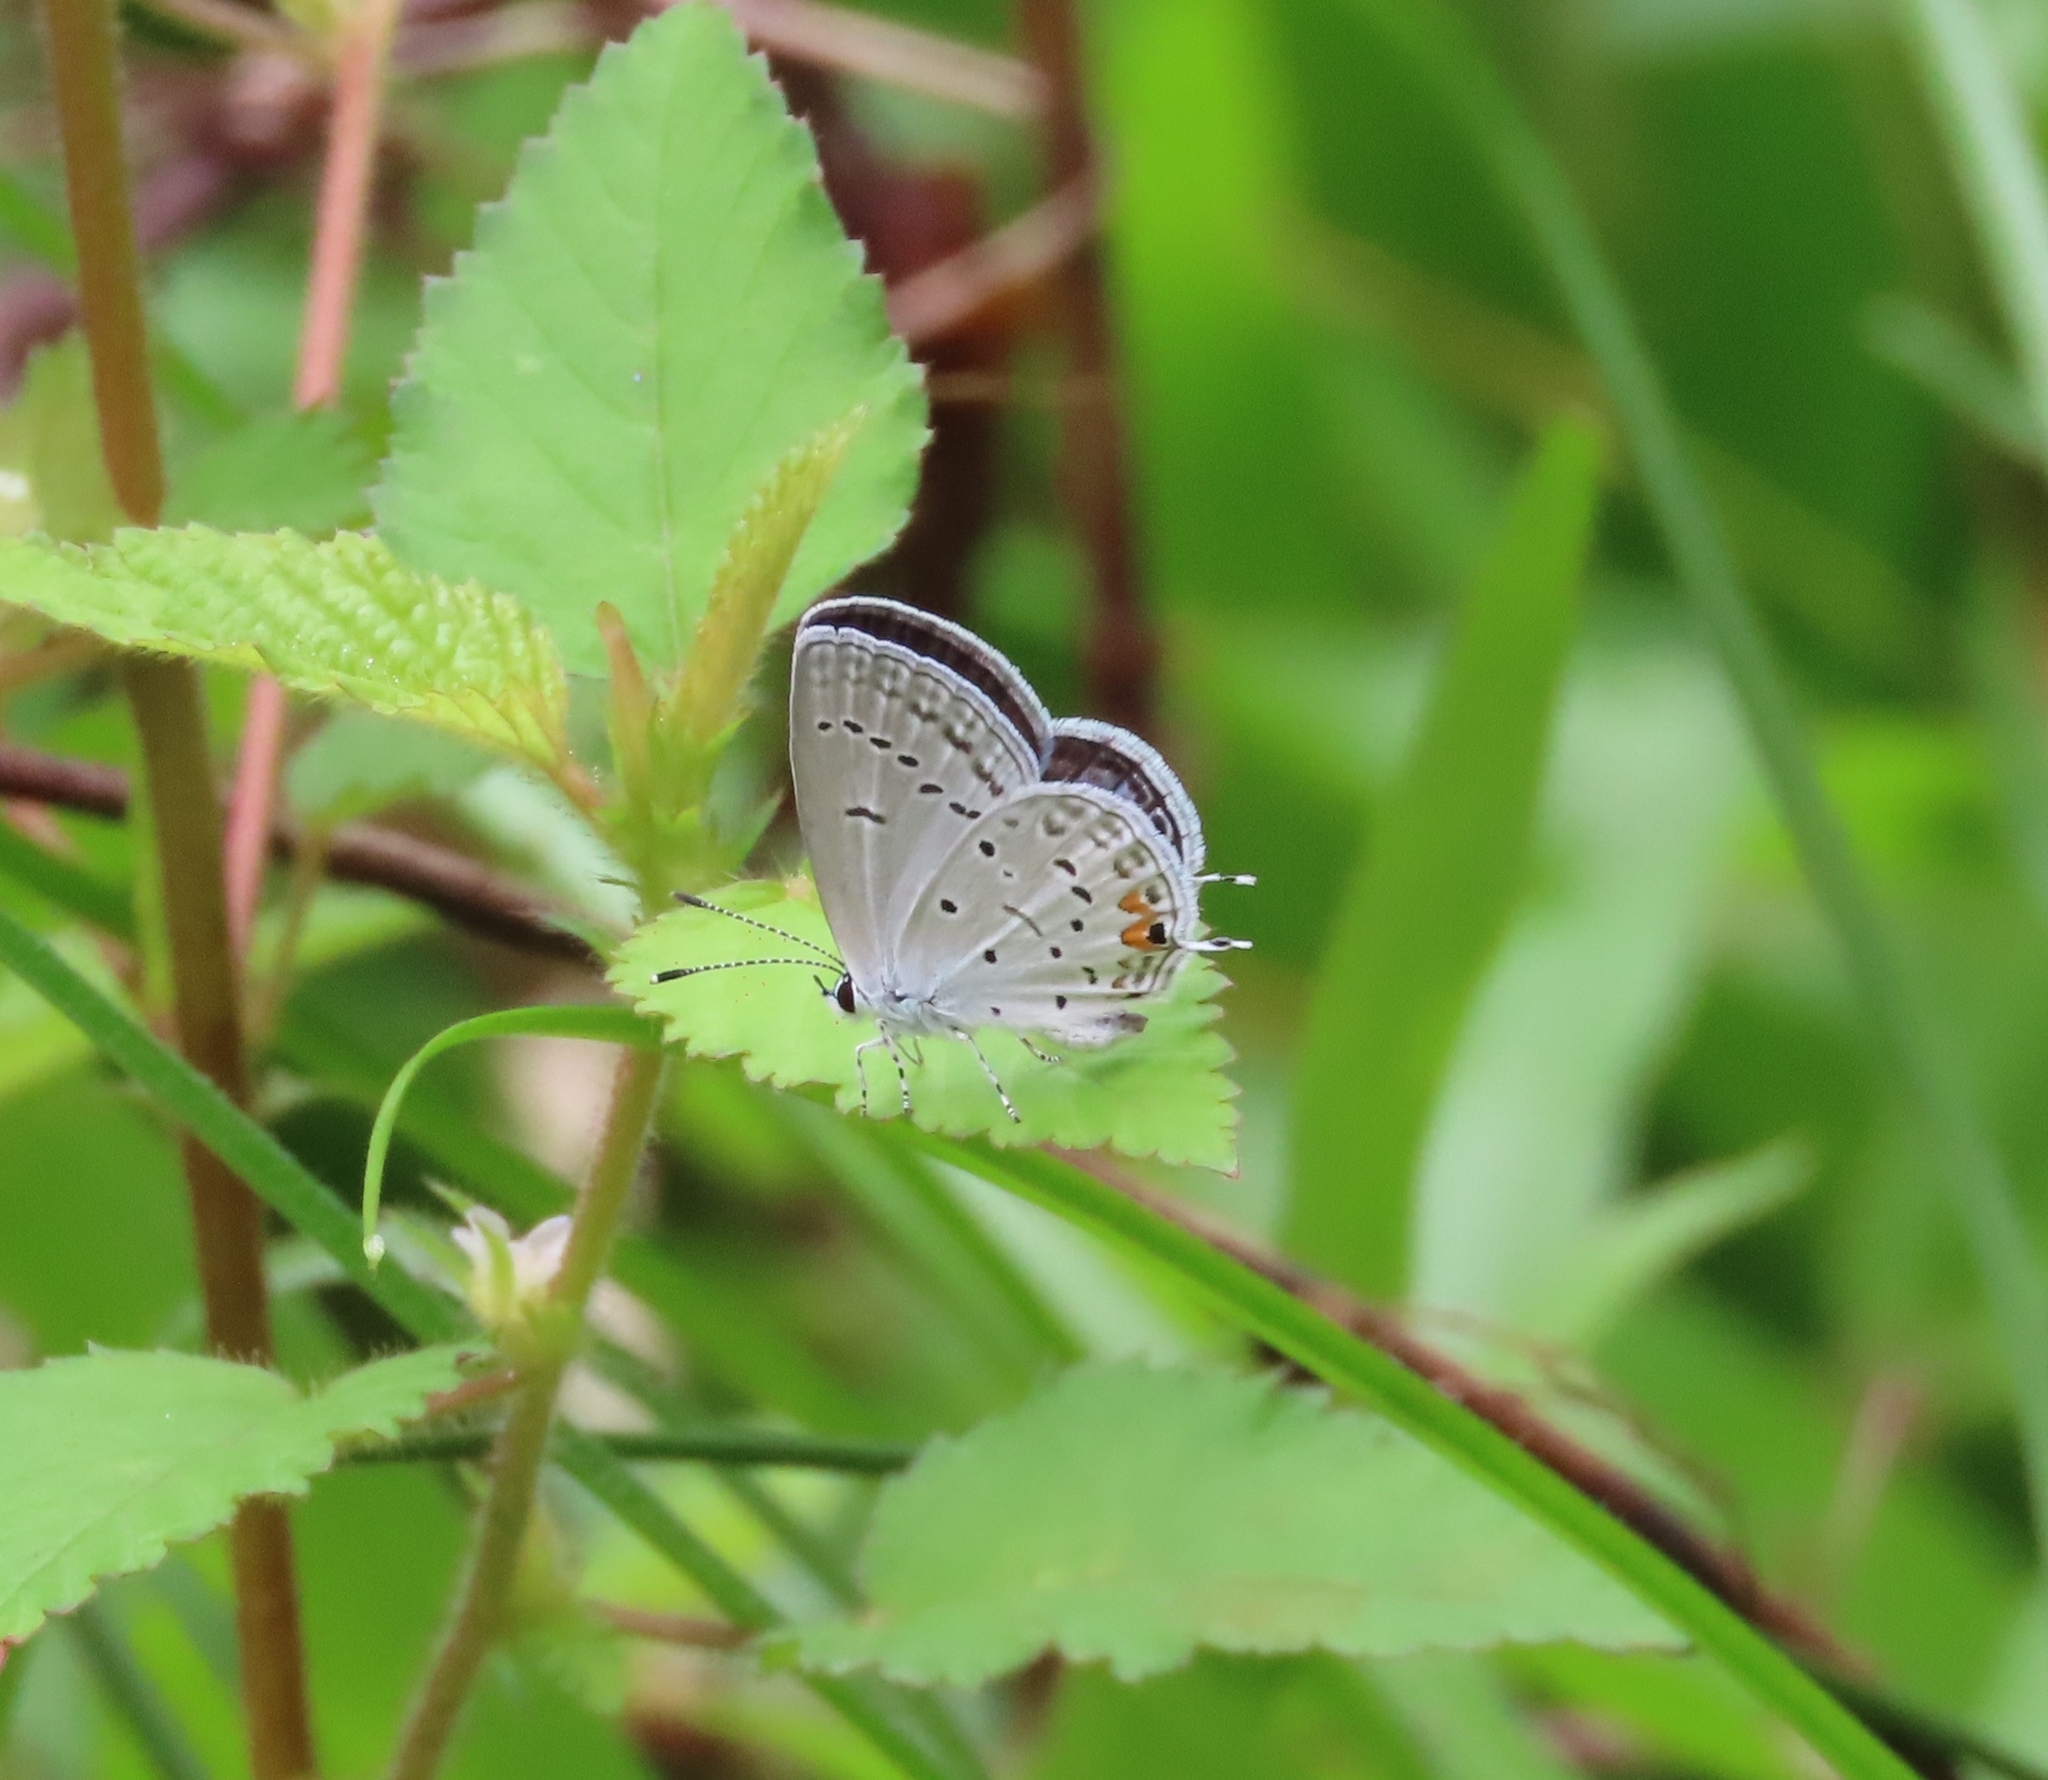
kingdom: Animalia
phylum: Arthropoda
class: Insecta
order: Lepidoptera
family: Lycaenidae
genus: Elkalyce
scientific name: Elkalyce comyntas
